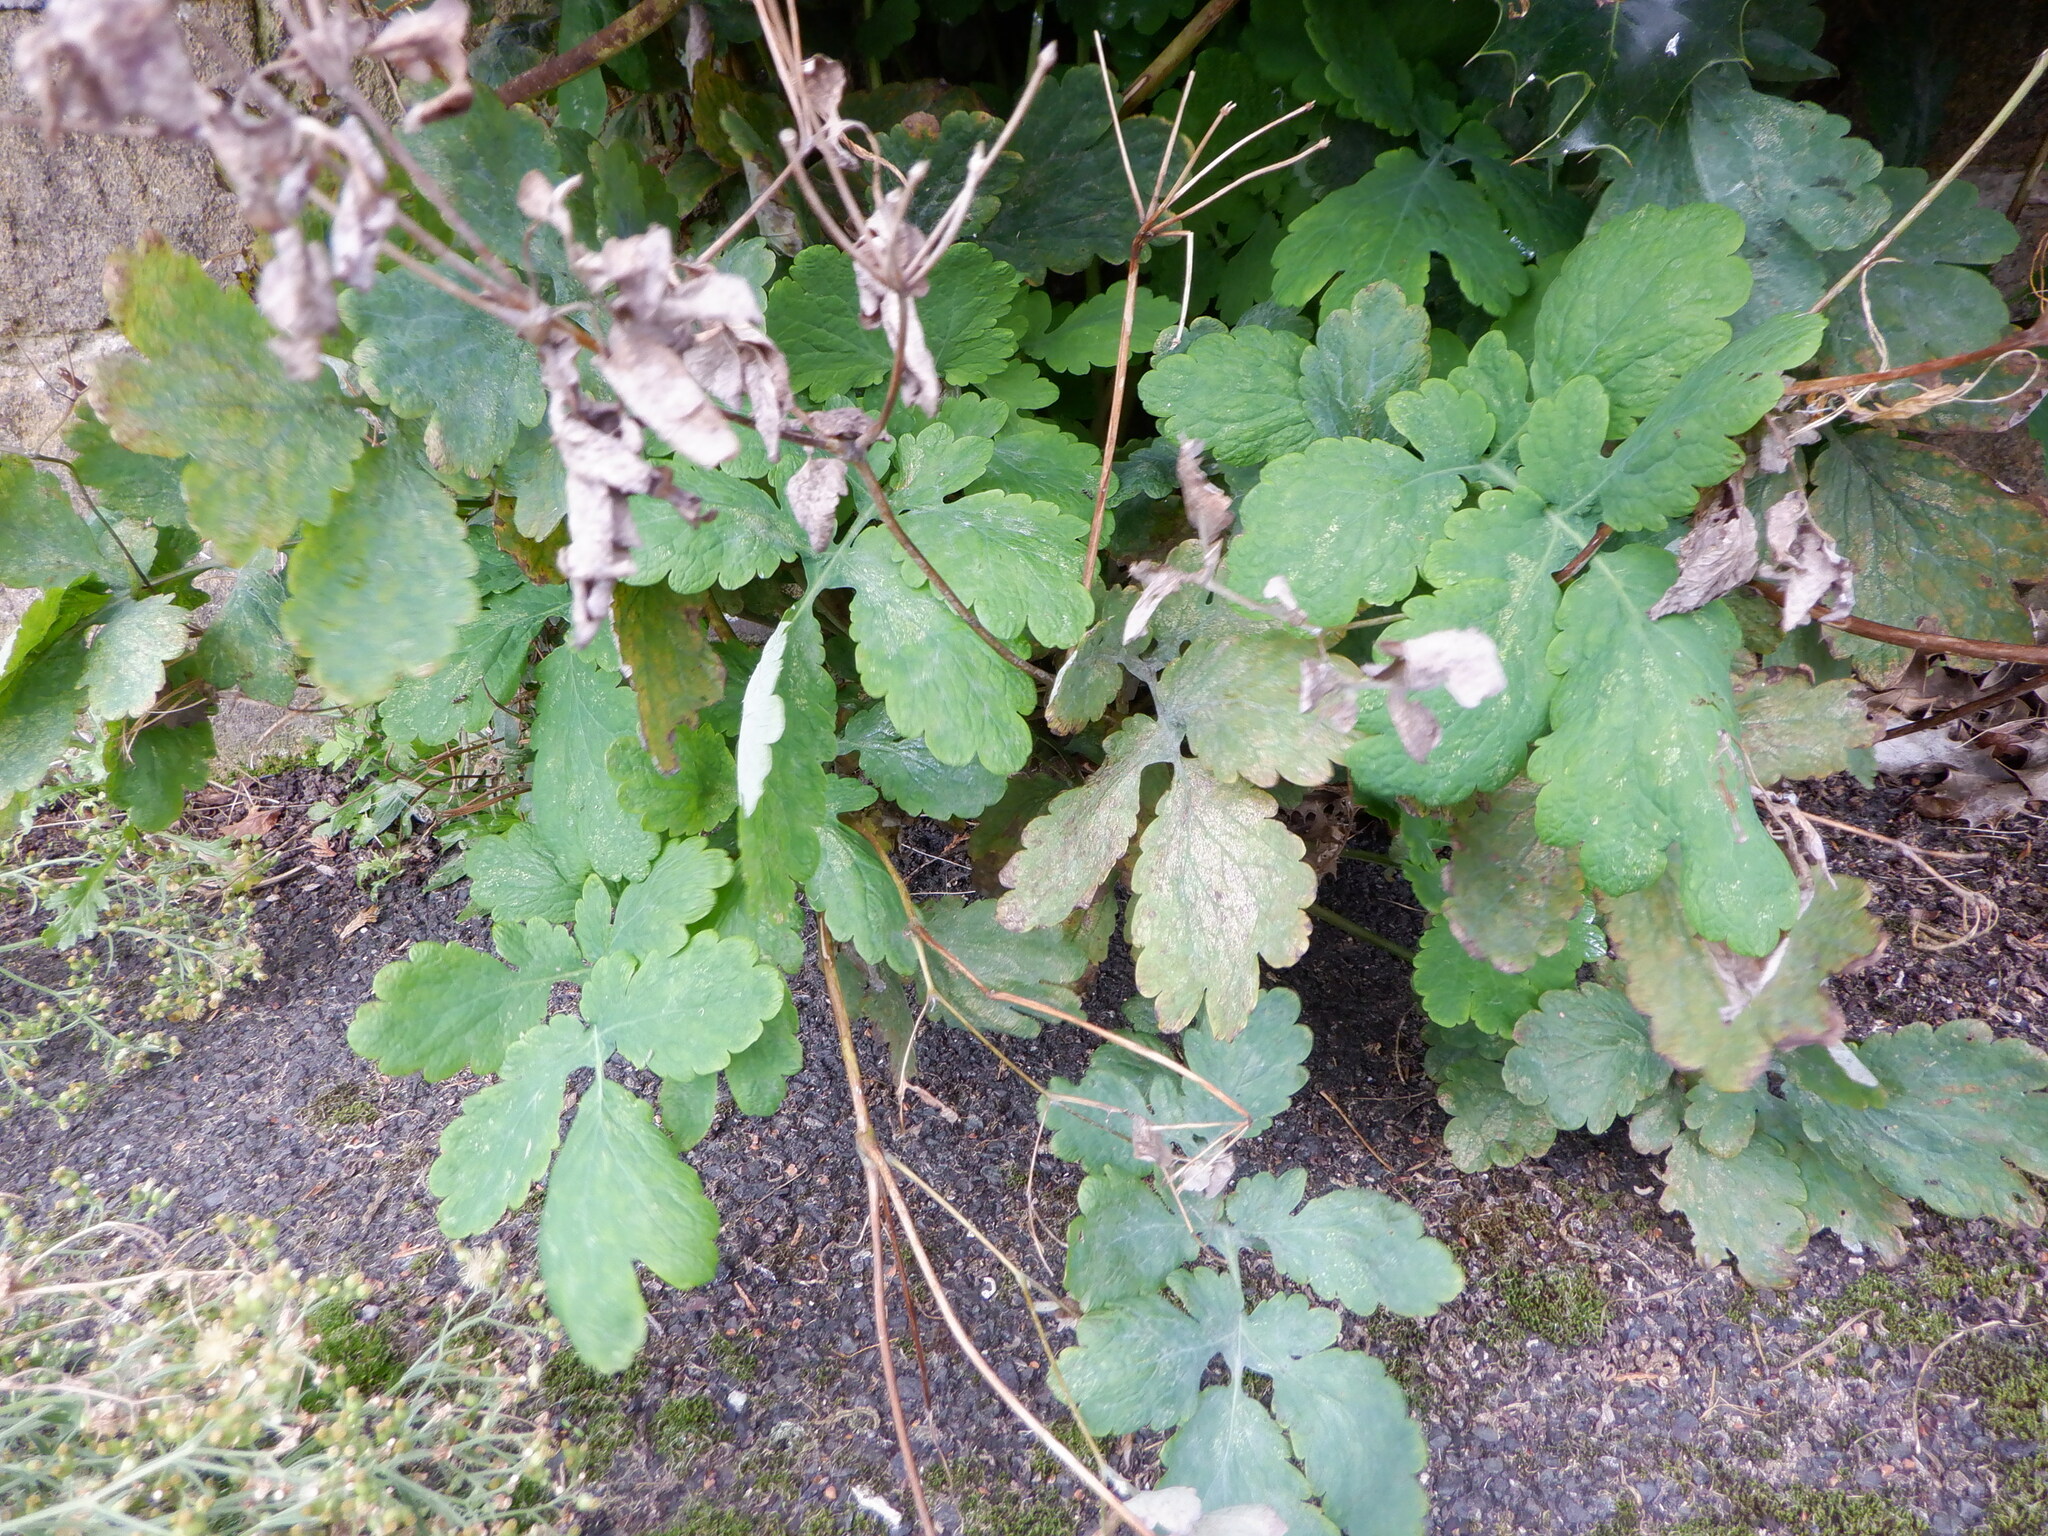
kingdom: Plantae
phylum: Tracheophyta
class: Magnoliopsida
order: Ranunculales
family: Papaveraceae
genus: Chelidonium
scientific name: Chelidonium majus
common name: Greater celandine
